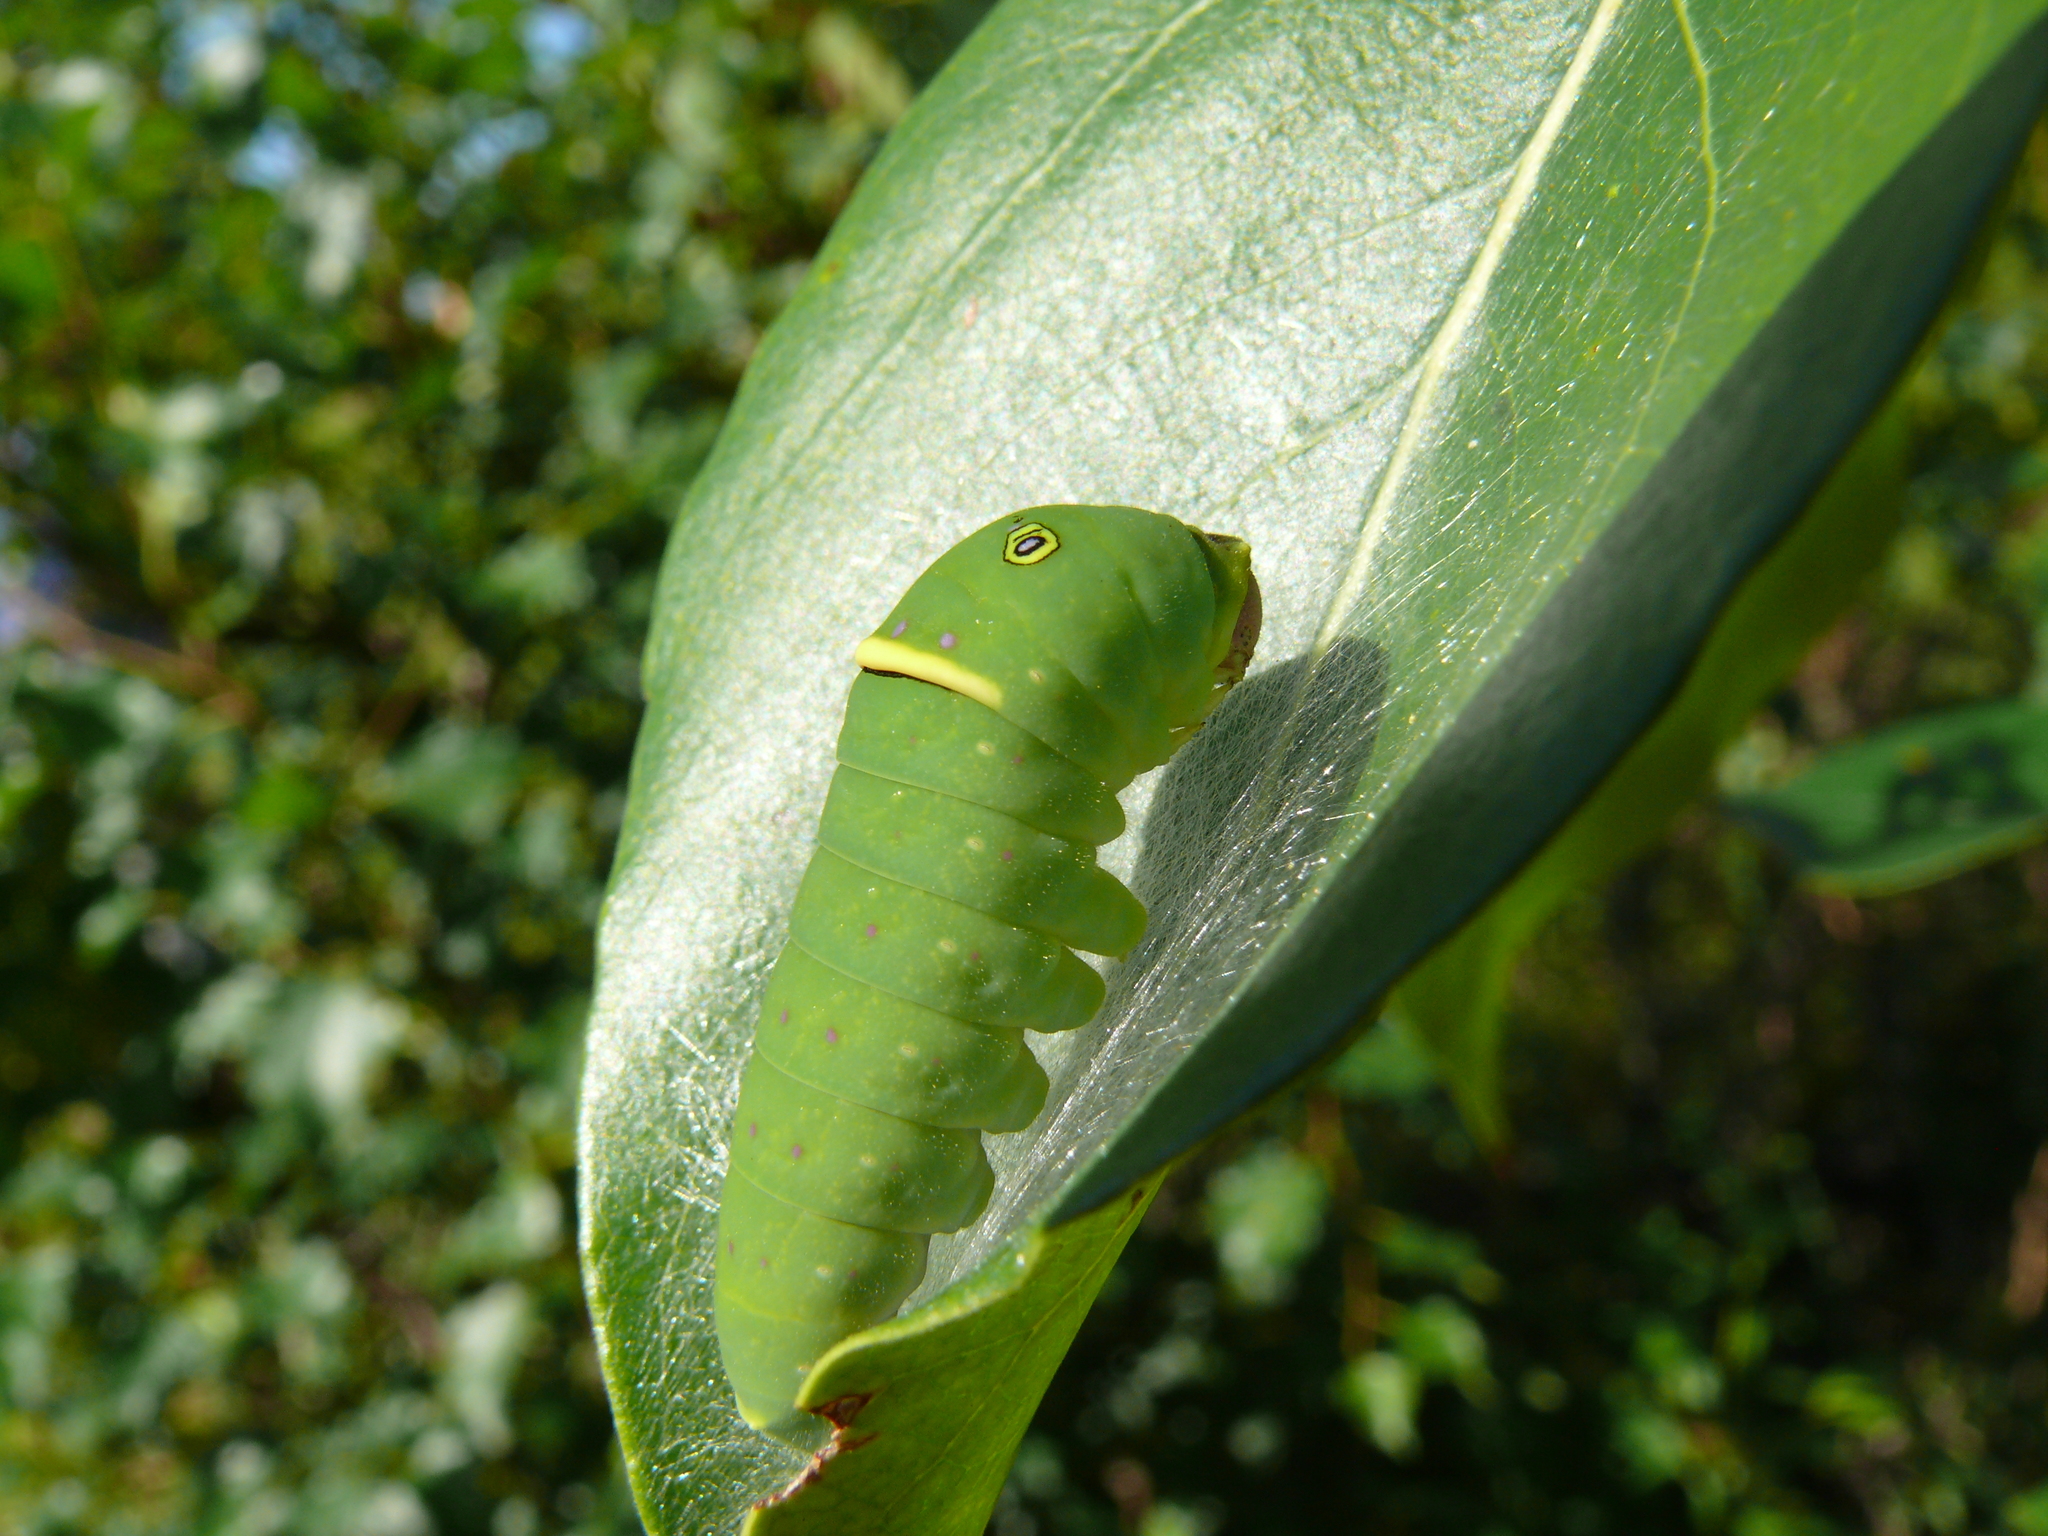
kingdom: Animalia
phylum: Arthropoda
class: Insecta
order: Lepidoptera
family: Papilionidae
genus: Papilio
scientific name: Papilio canadensis
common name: Canadian tiger swallowtail
